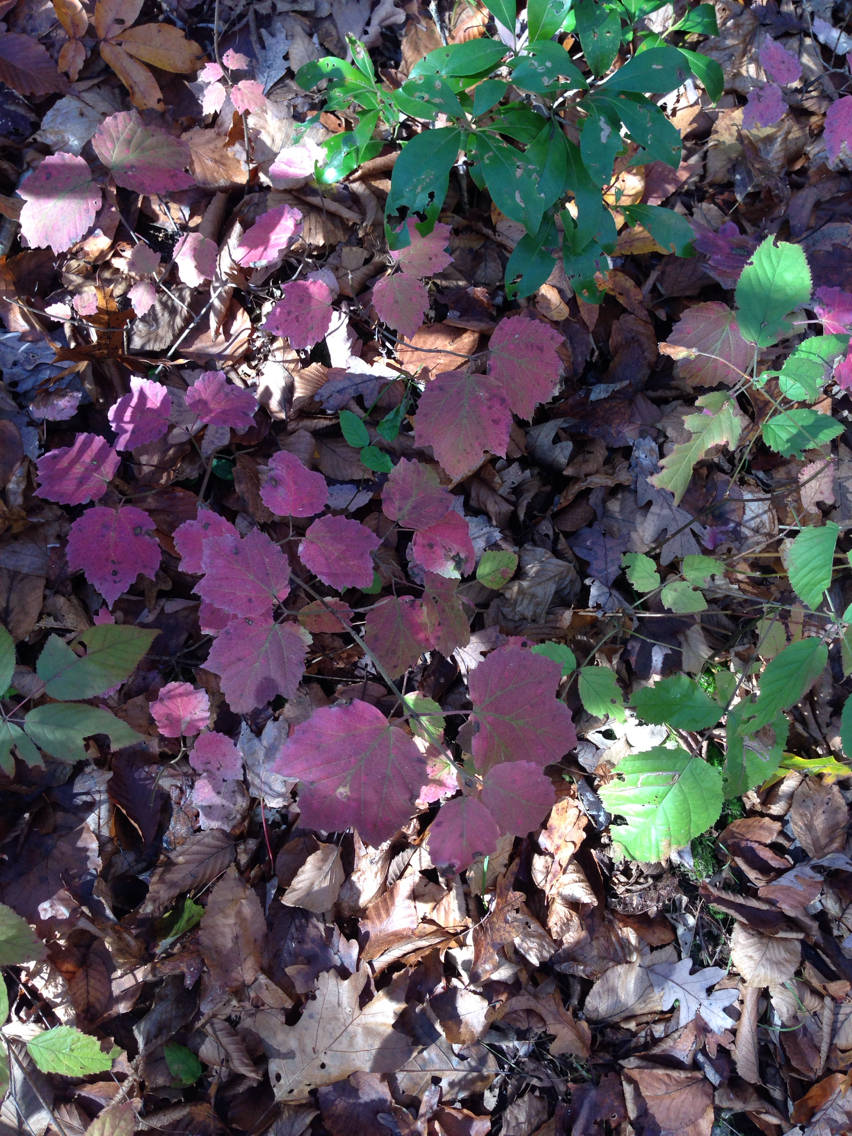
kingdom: Plantae
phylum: Tracheophyta
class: Magnoliopsida
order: Dipsacales
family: Viburnaceae
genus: Viburnum
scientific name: Viburnum acerifolium
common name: Dockmackie
